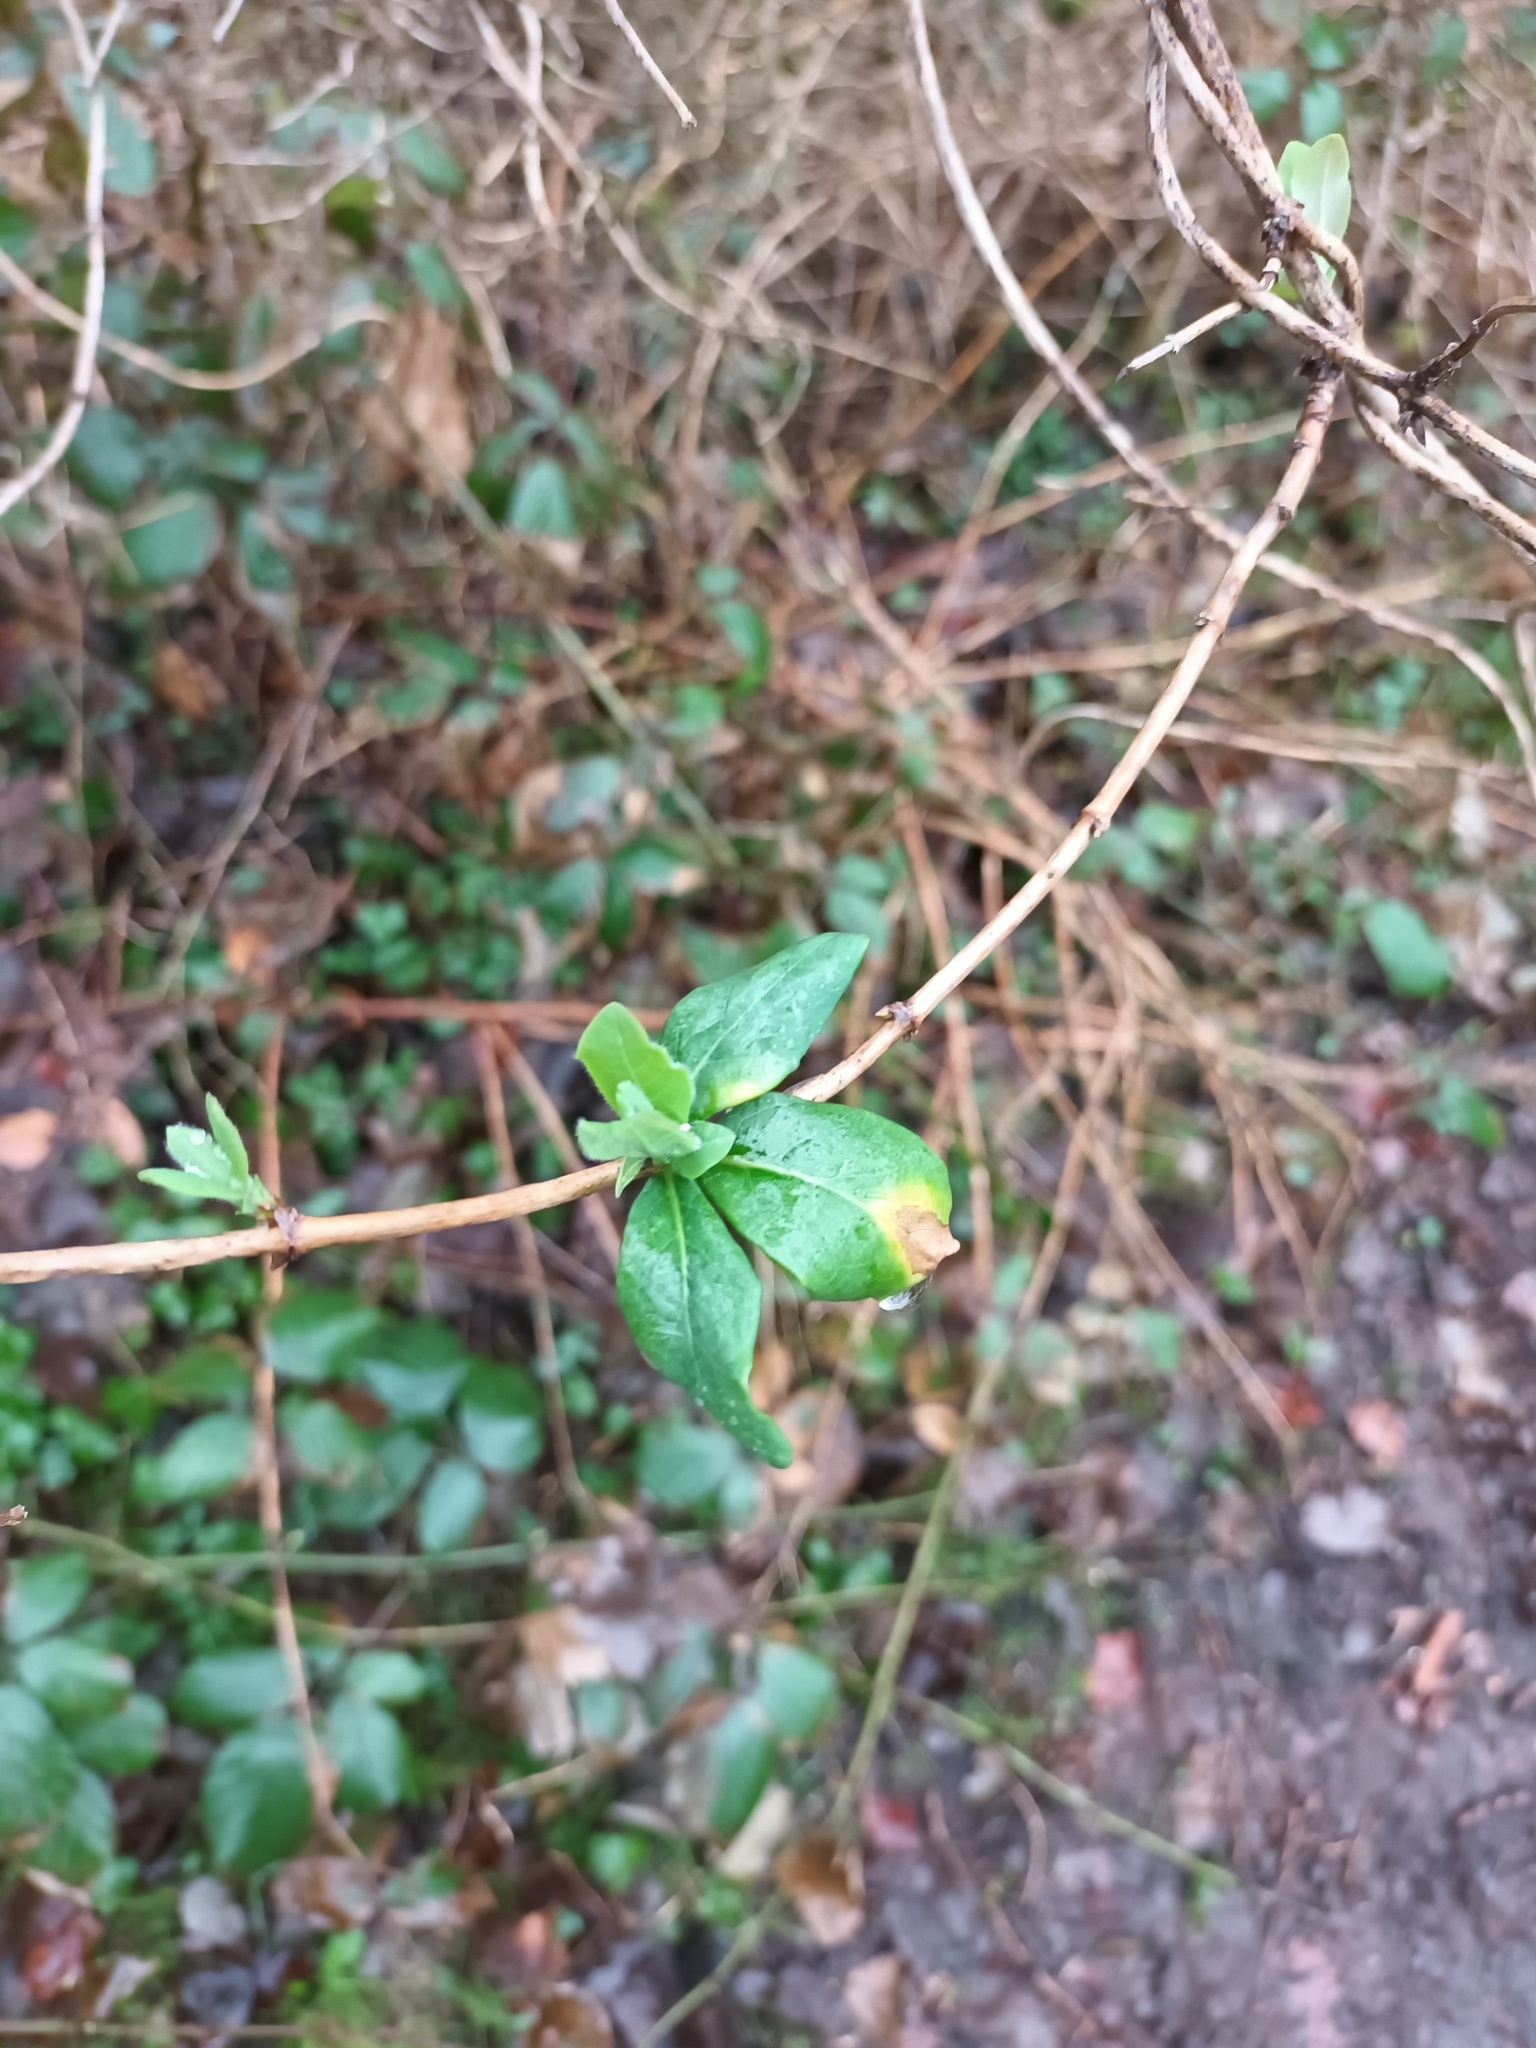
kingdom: Plantae
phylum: Tracheophyta
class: Magnoliopsida
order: Dipsacales
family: Caprifoliaceae
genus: Lonicera
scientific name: Lonicera periclymenum
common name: European honeysuckle
